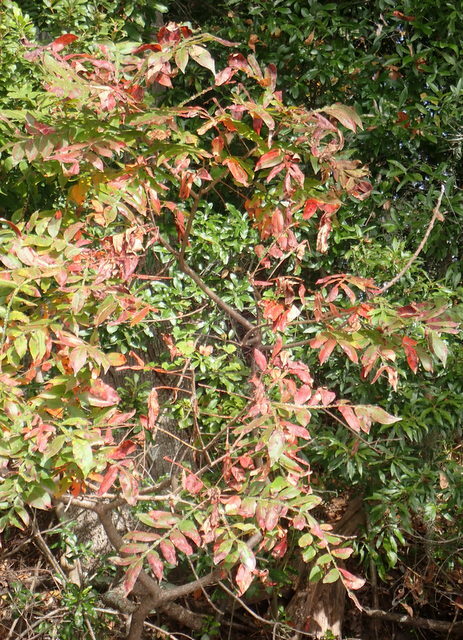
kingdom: Plantae
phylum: Tracheophyta
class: Magnoliopsida
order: Sapindales
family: Anacardiaceae
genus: Rhus
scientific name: Rhus copallina
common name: Shining sumac
